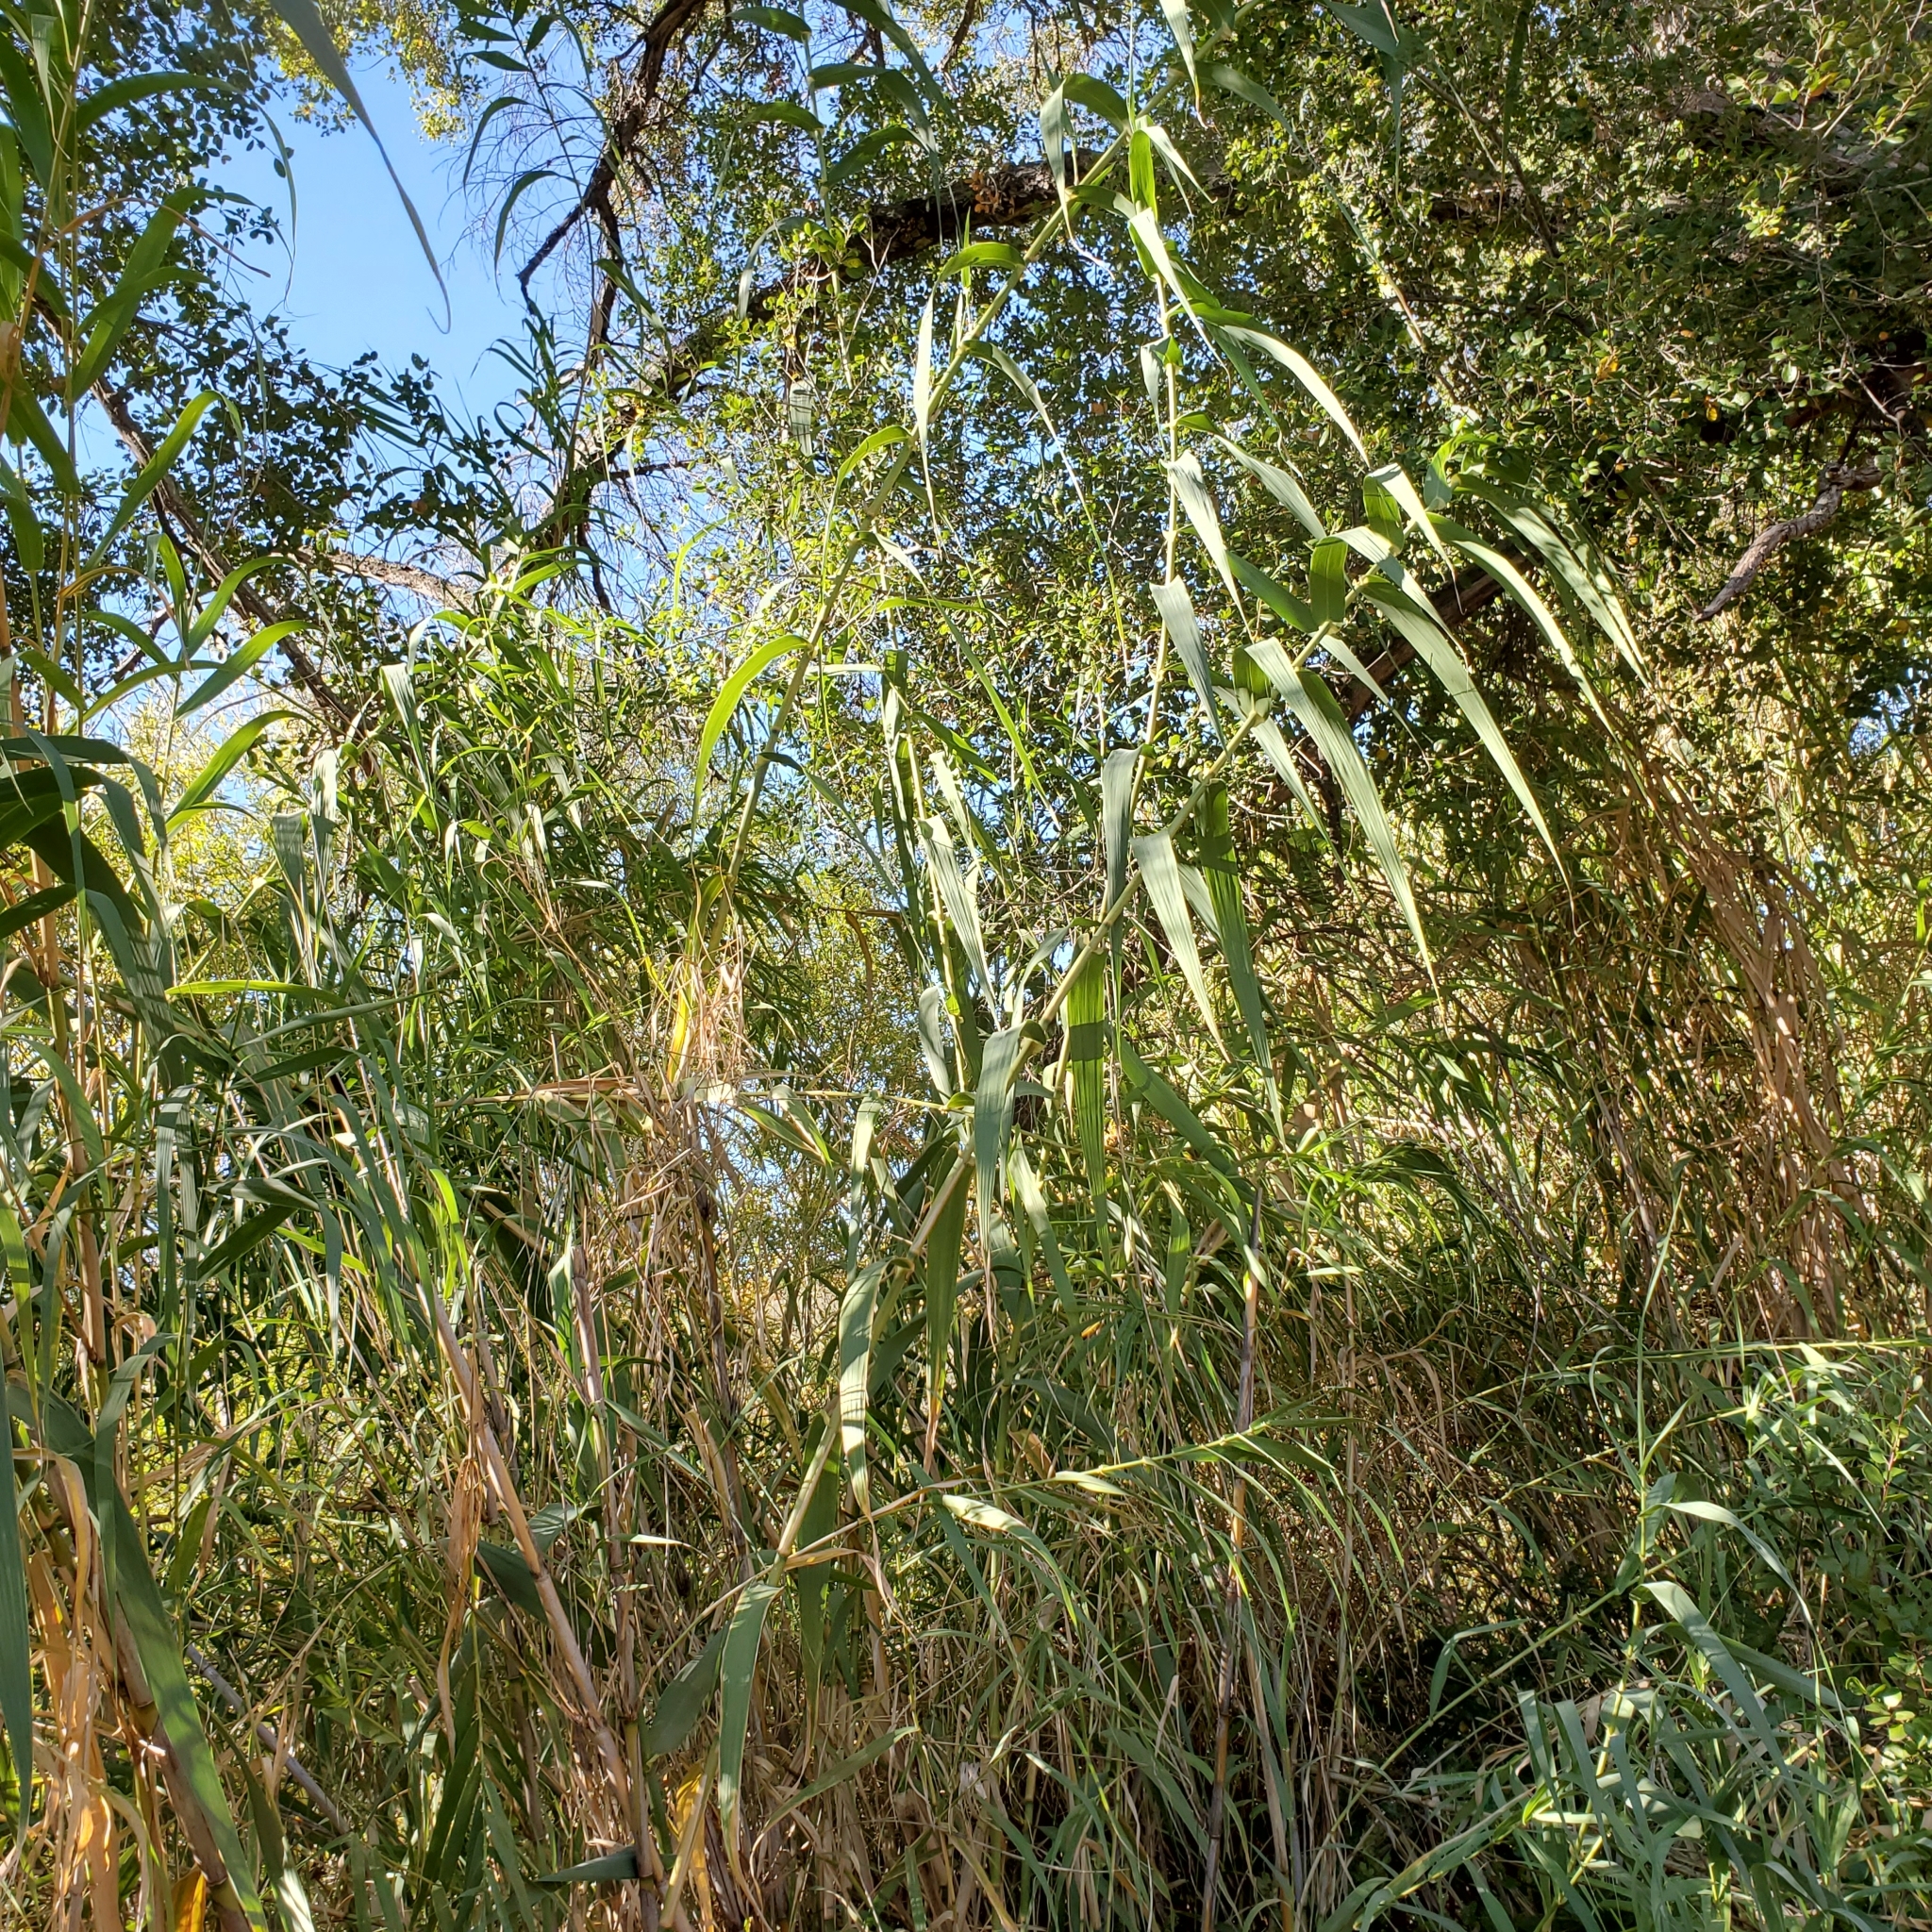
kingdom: Plantae
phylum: Tracheophyta
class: Liliopsida
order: Poales
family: Poaceae
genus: Arundo
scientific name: Arundo donax
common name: Giant reed
